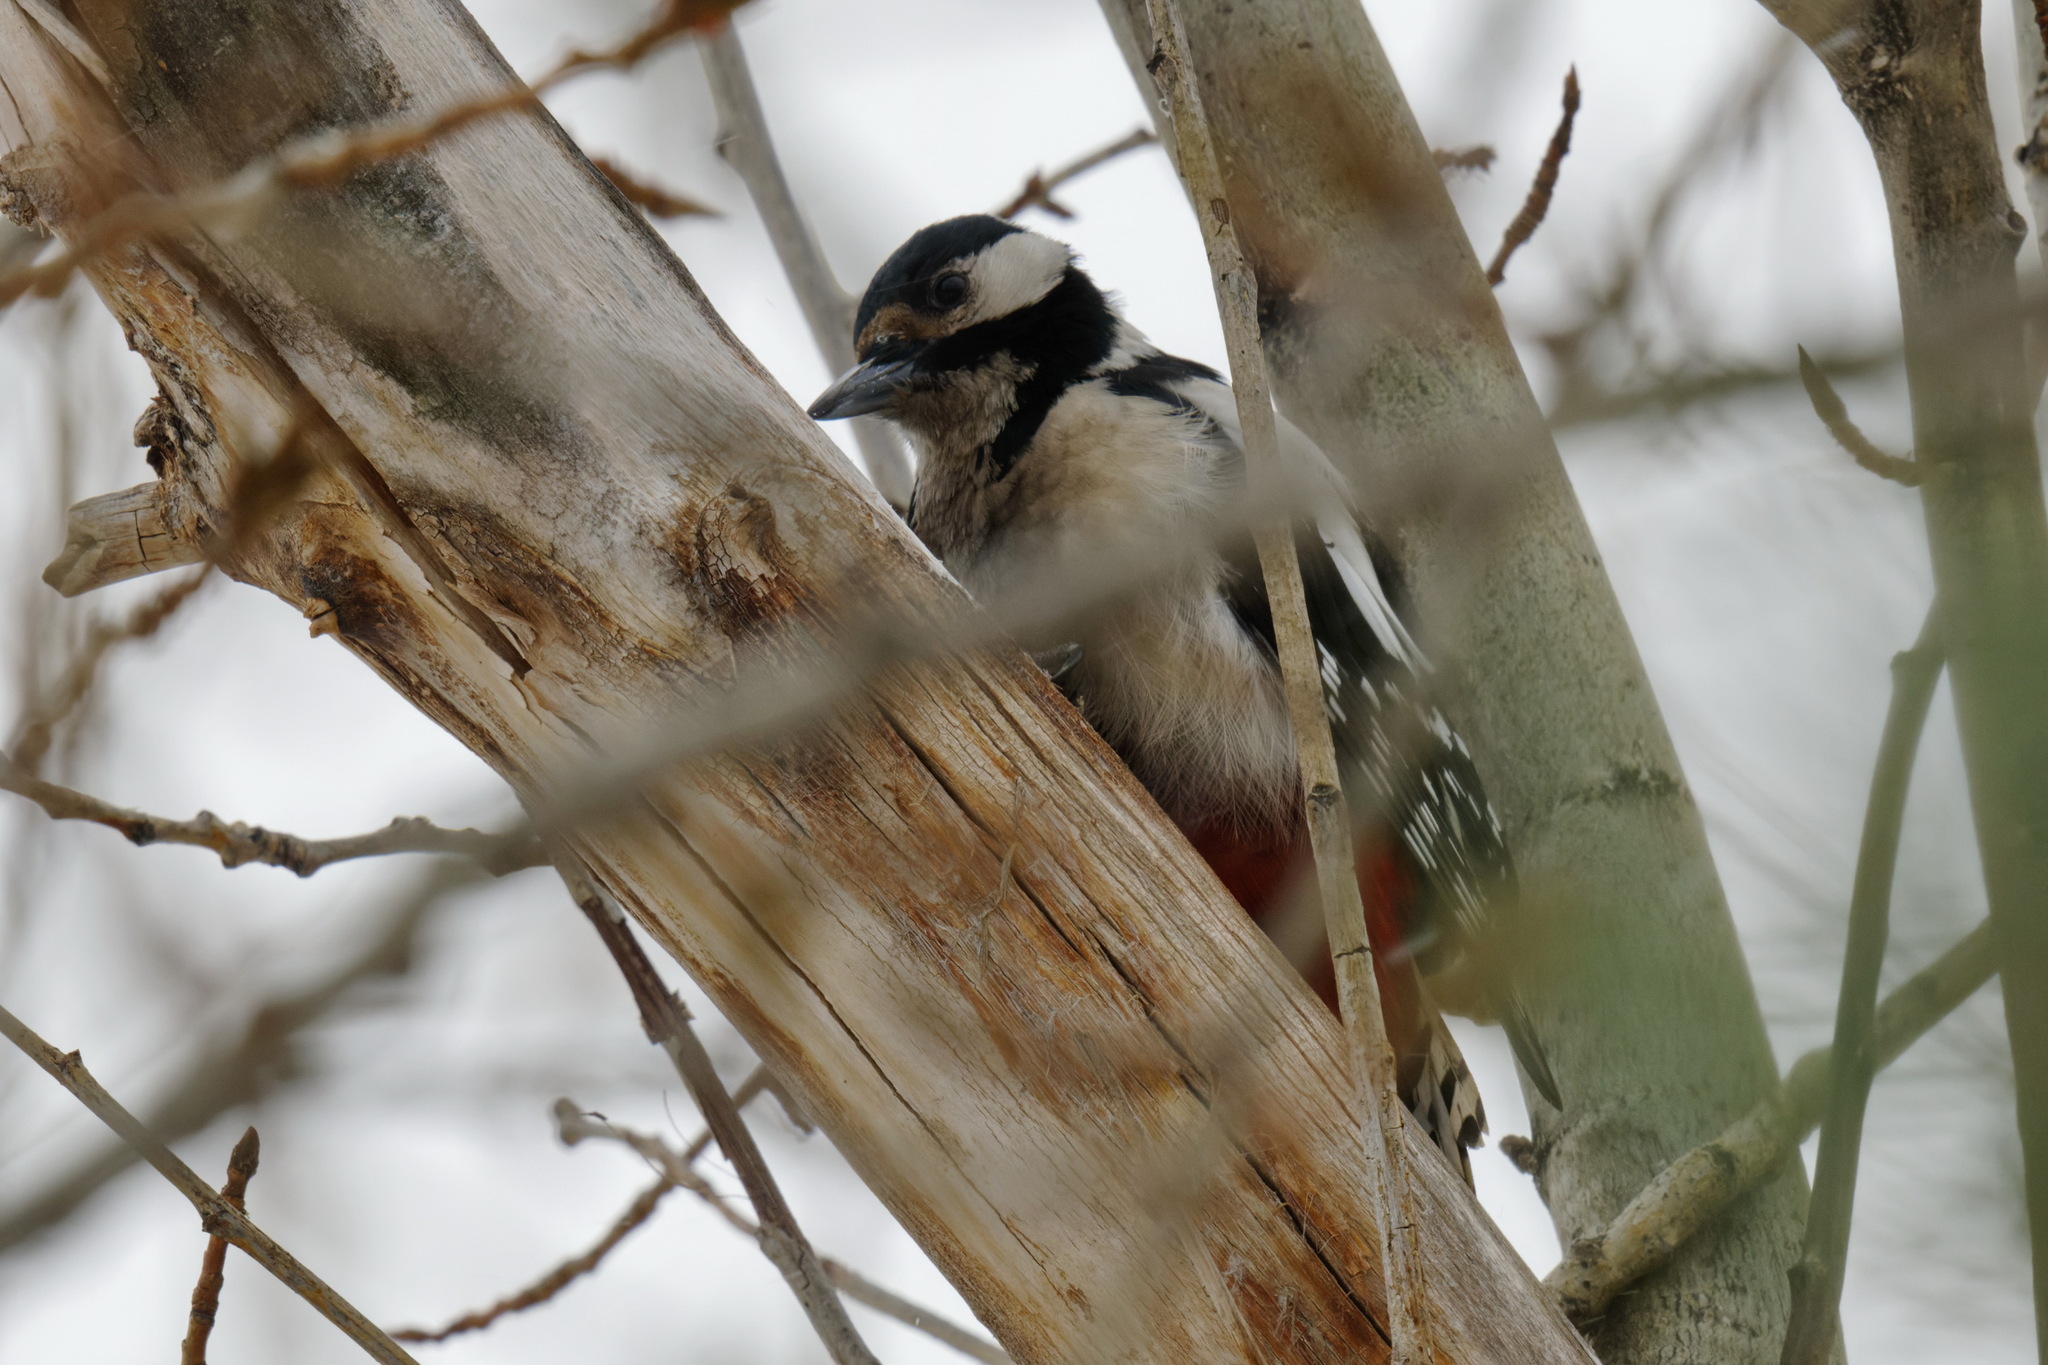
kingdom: Animalia
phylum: Chordata
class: Aves
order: Piciformes
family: Picidae
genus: Dendrocopos
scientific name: Dendrocopos major
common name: Great spotted woodpecker
